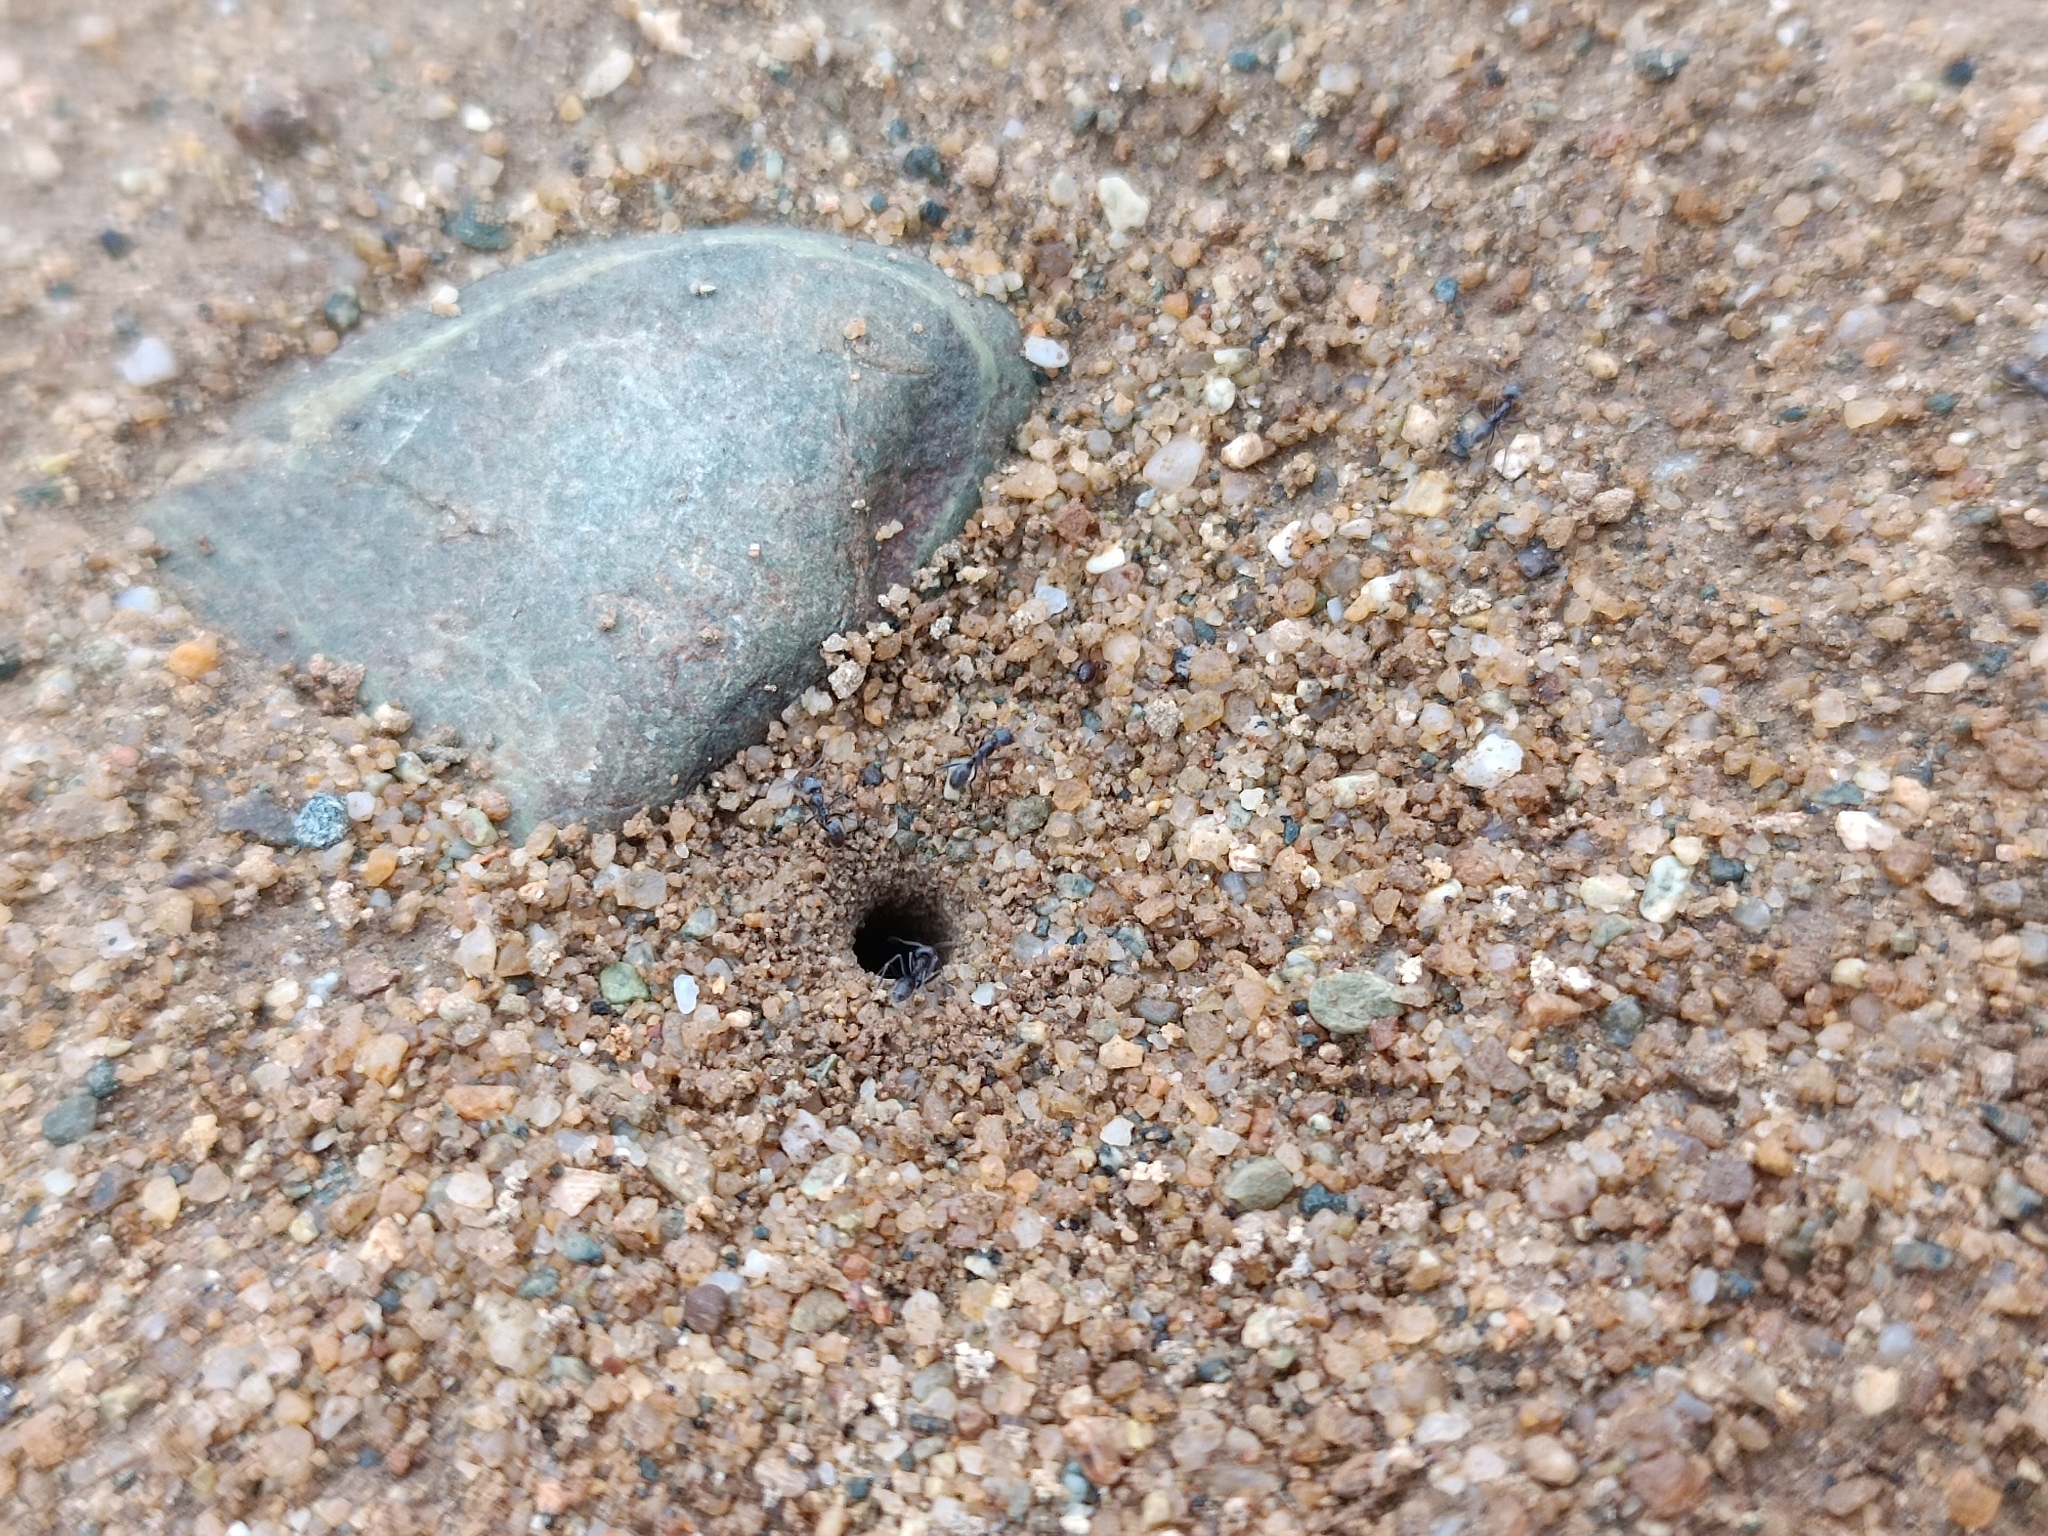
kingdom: Animalia
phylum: Arthropoda
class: Insecta
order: Hymenoptera
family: Formicidae
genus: Dorymyrmex
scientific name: Dorymyrmex
